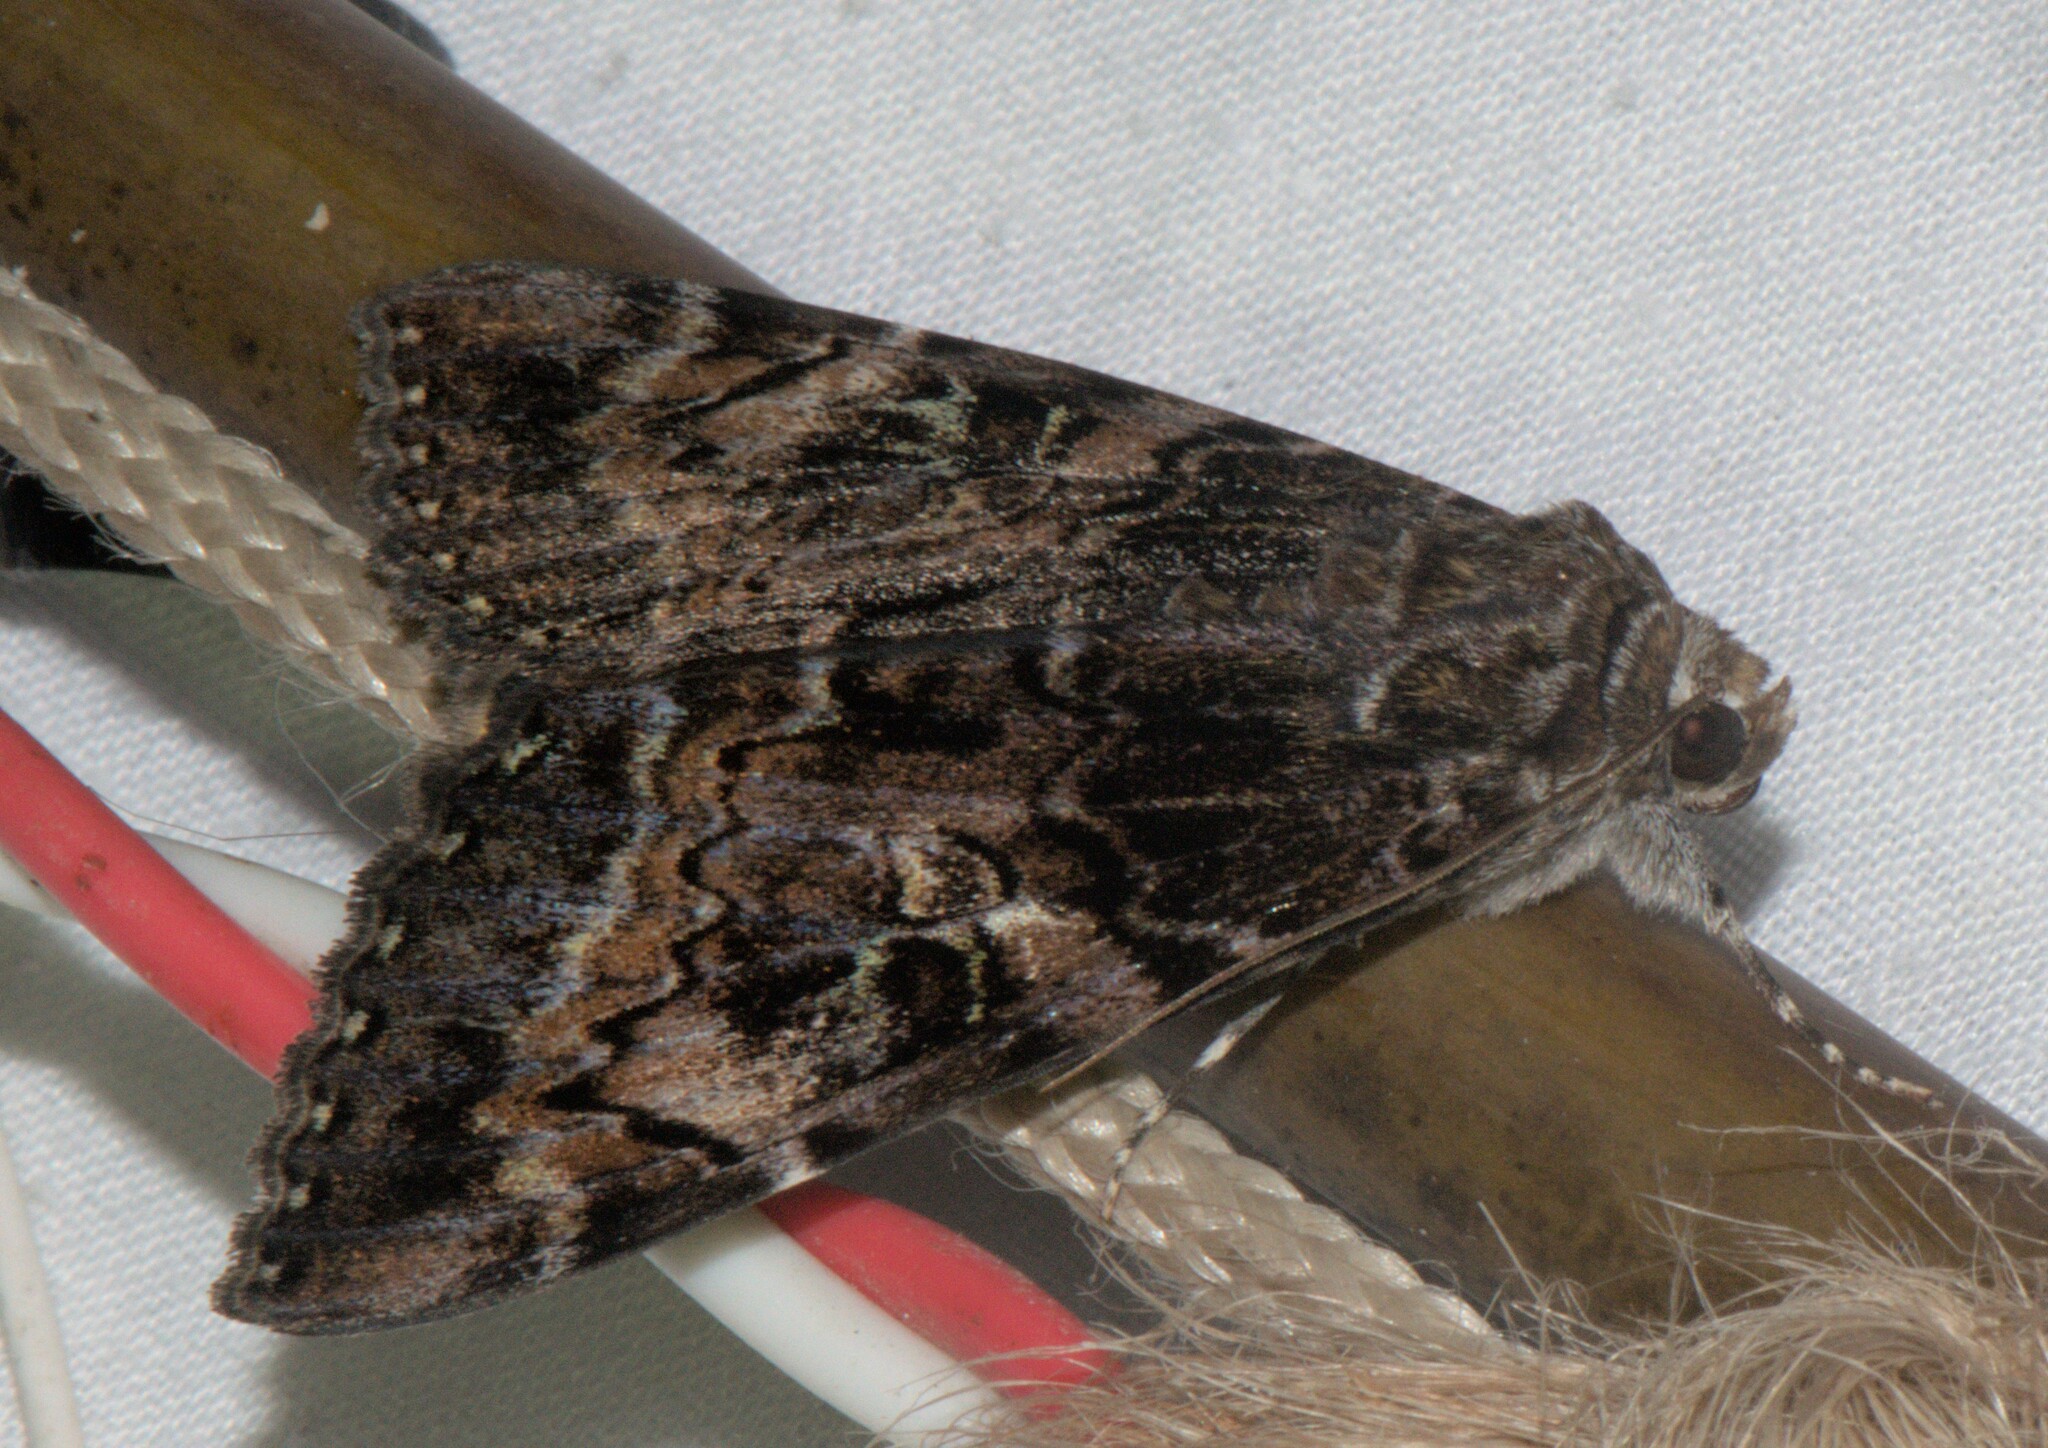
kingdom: Animalia
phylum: Arthropoda
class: Insecta
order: Lepidoptera
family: Erebidae
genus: Catocala
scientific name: Catocala tapestrina
